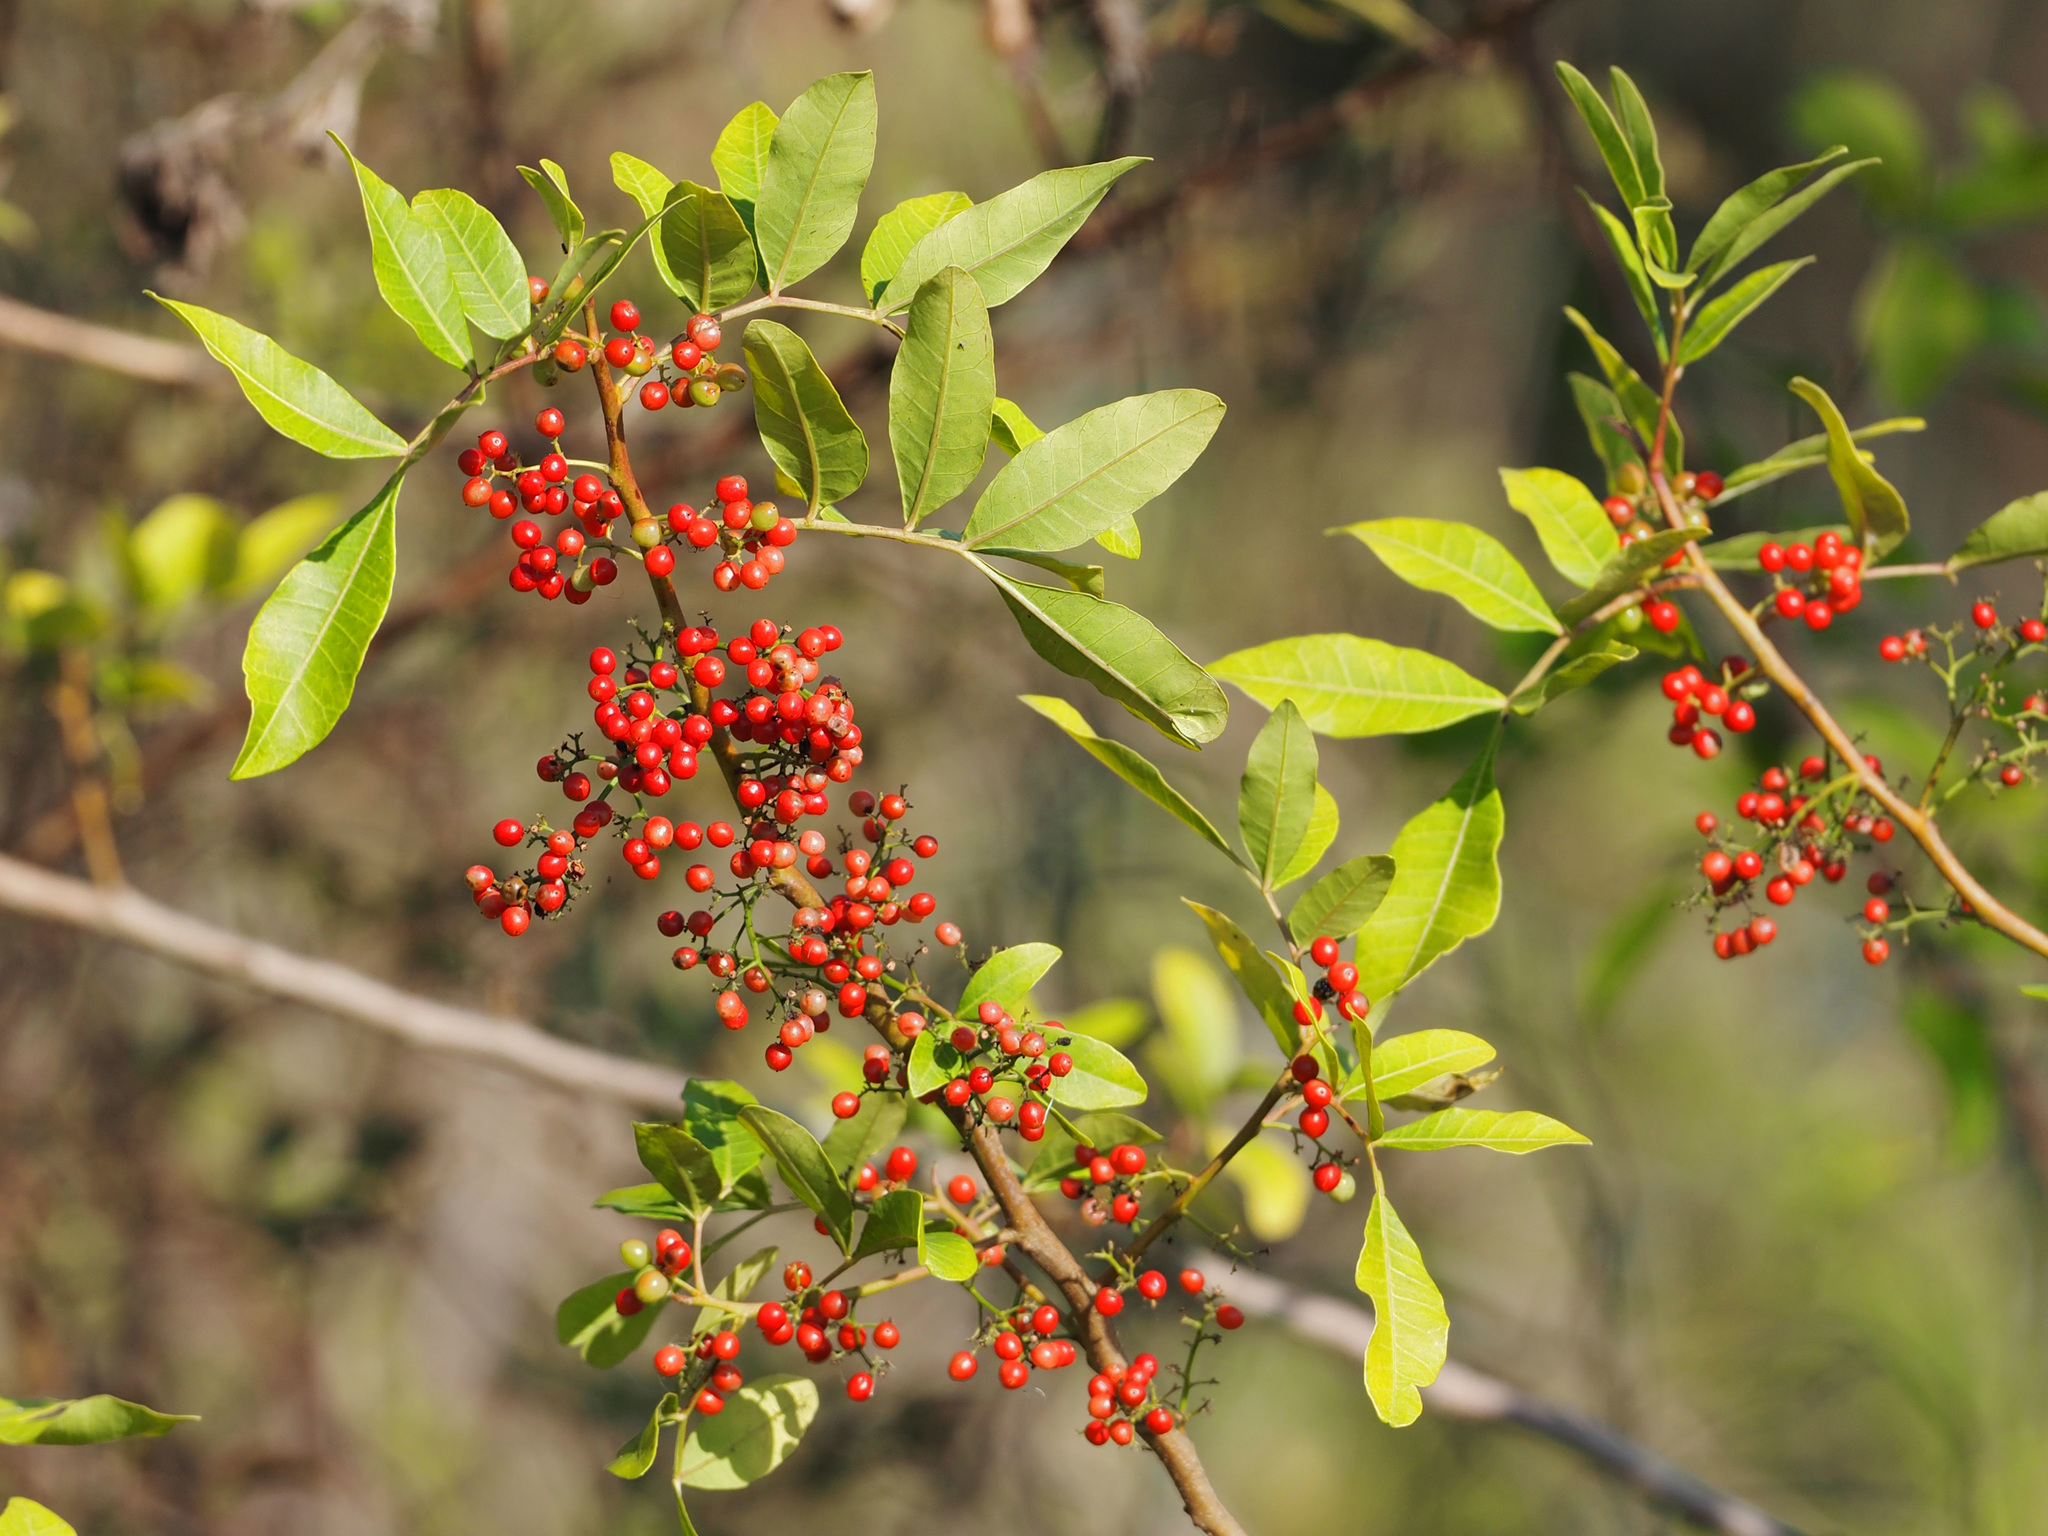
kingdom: Plantae
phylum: Tracheophyta
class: Magnoliopsida
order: Sapindales
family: Anacardiaceae
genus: Schinus
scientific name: Schinus terebinthifolia
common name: Brazilian peppertree
